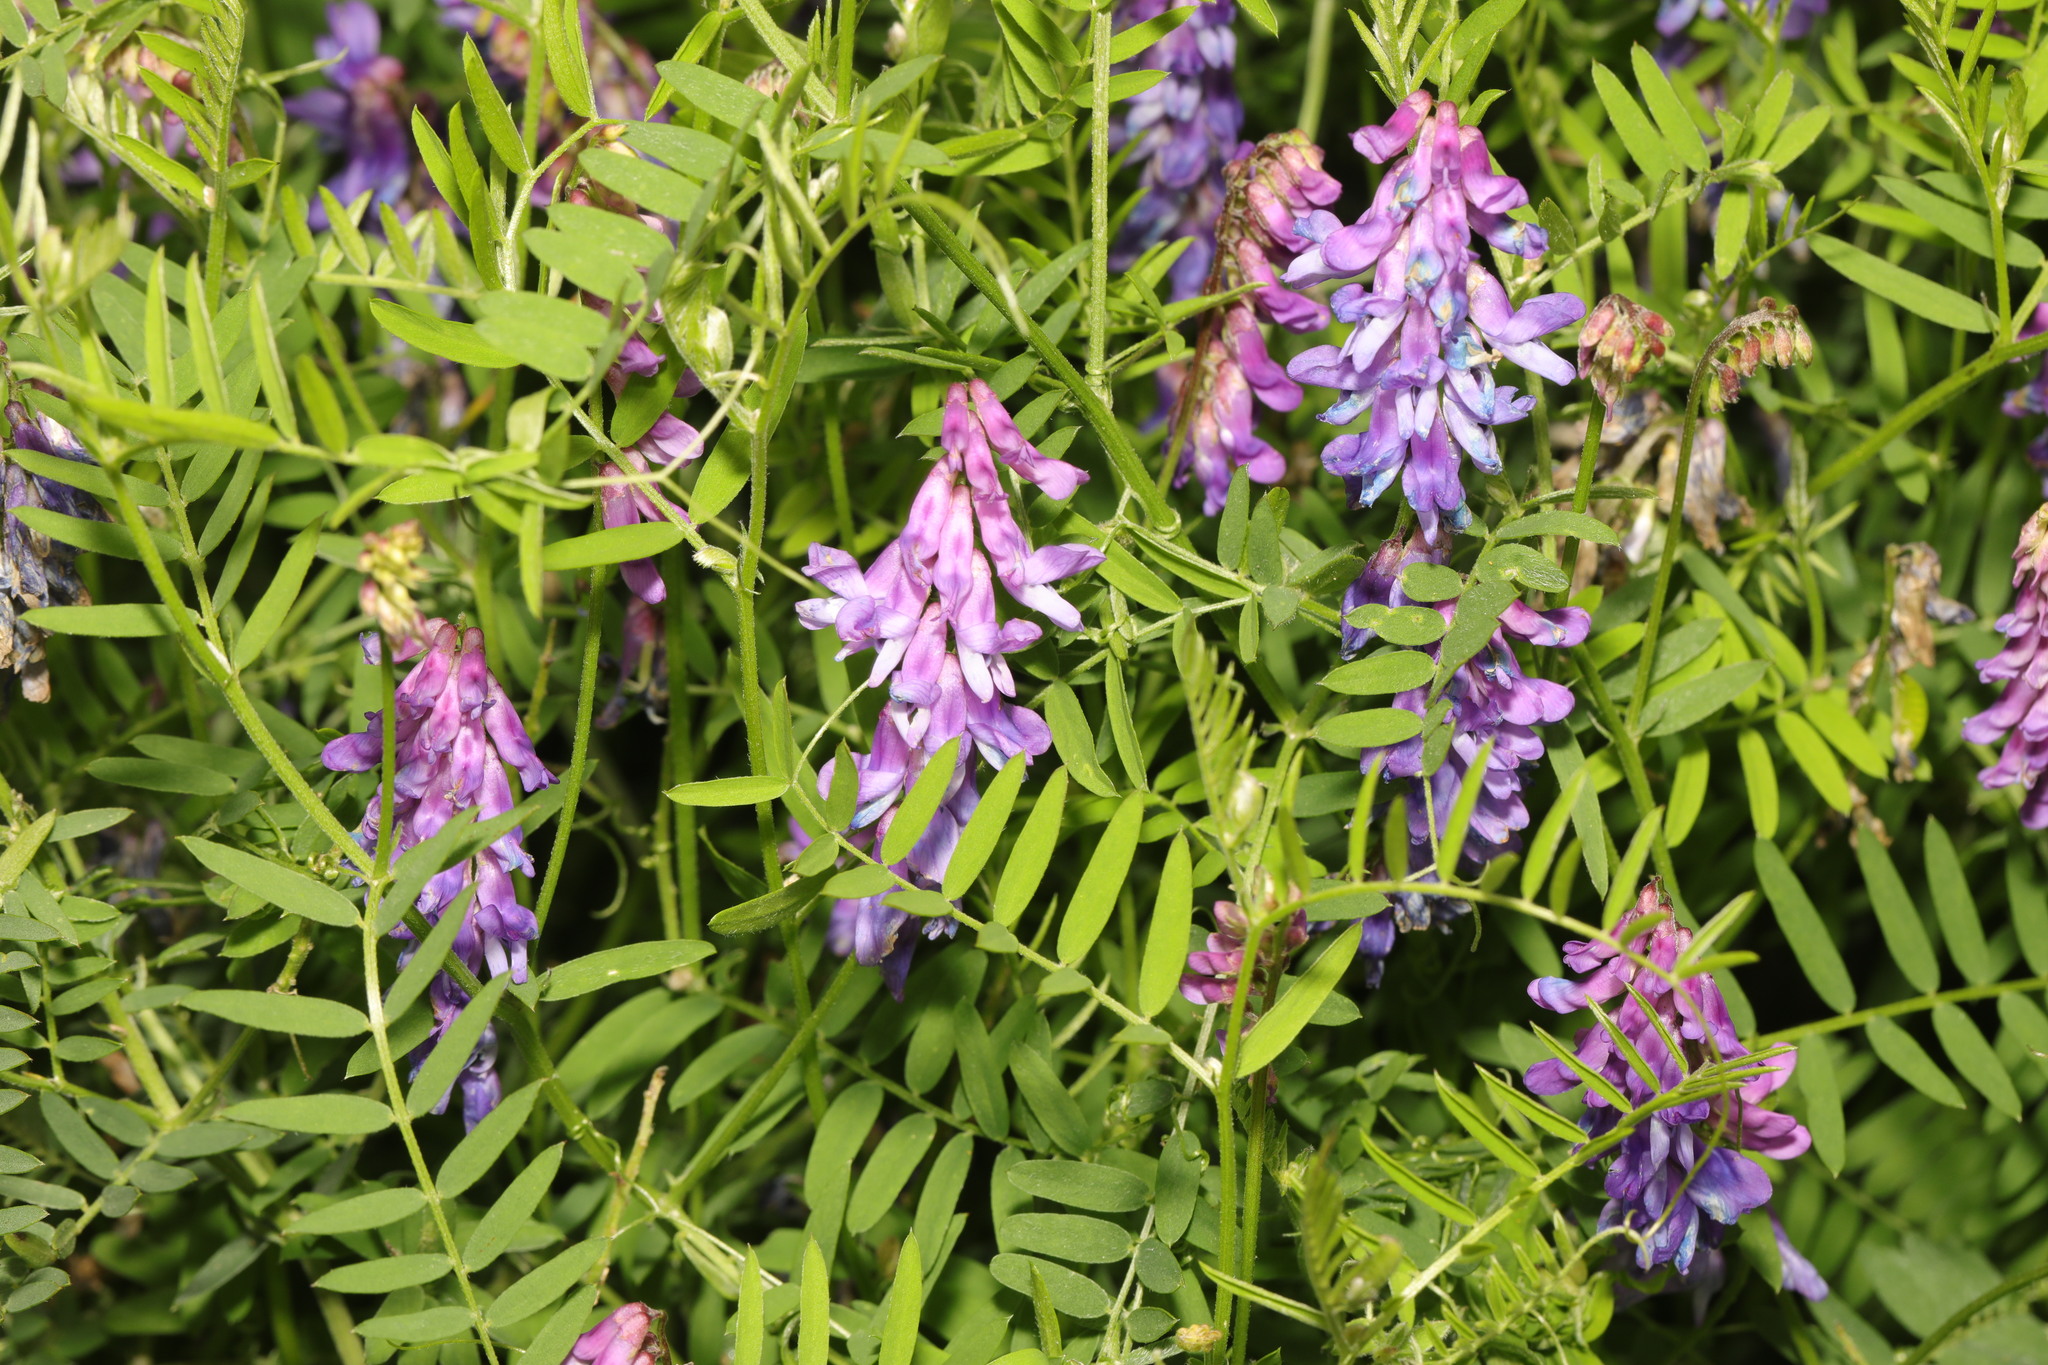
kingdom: Plantae
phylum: Tracheophyta
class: Magnoliopsida
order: Fabales
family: Fabaceae
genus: Vicia
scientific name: Vicia cracca
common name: Bird vetch
